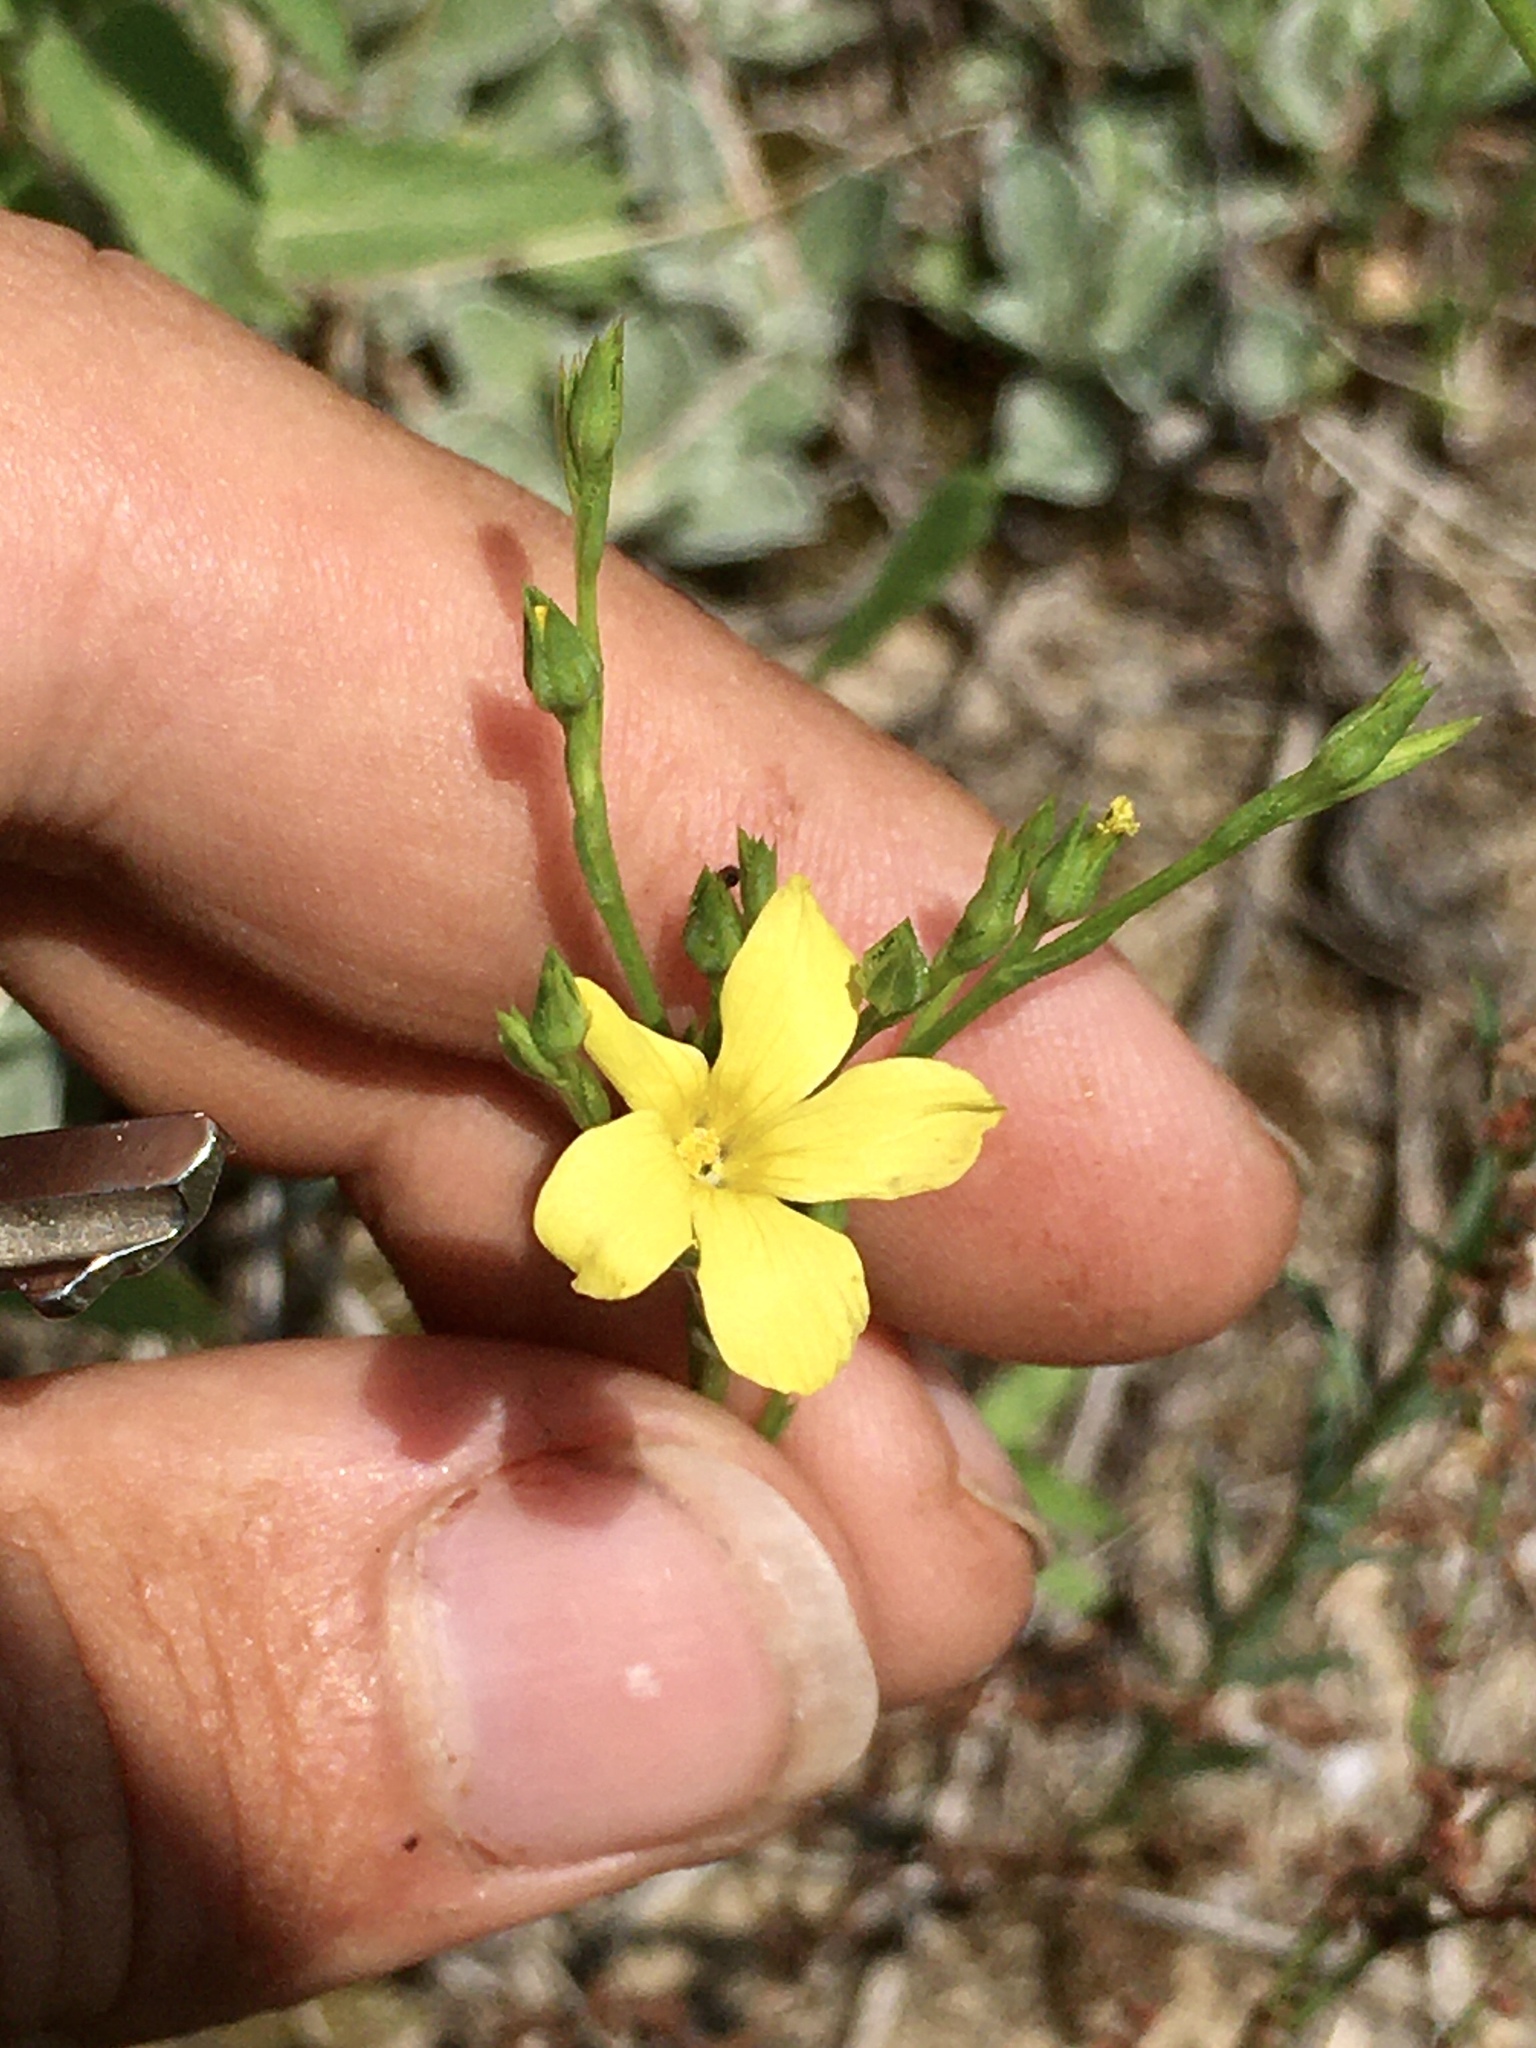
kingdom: Plantae
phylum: Tracheophyta
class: Magnoliopsida
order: Malpighiales
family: Linaceae
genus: Linum
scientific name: Linum sulcatum
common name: Grooved flax
